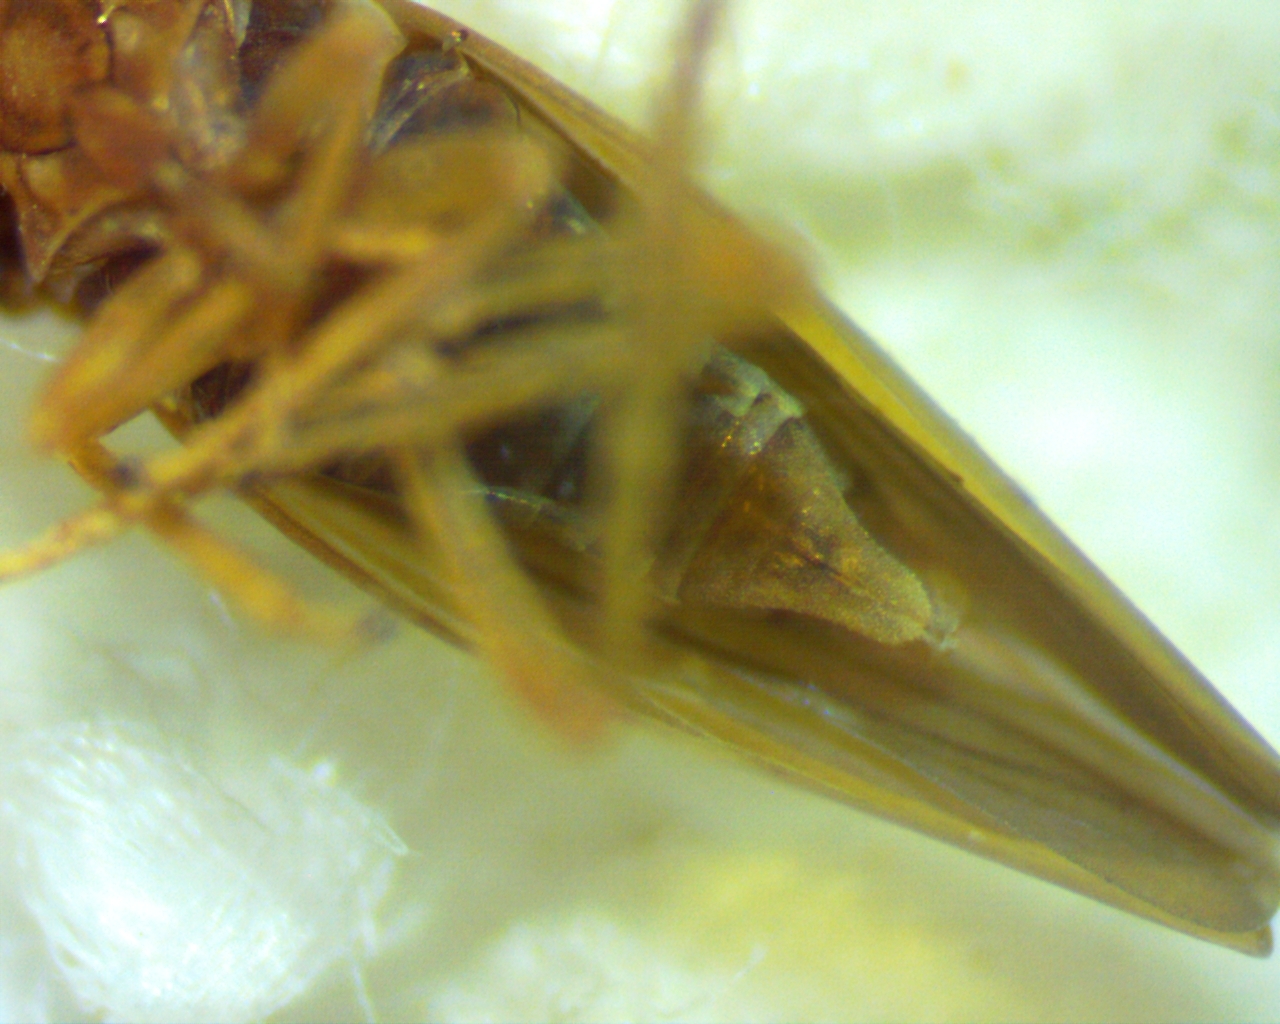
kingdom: Animalia
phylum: Arthropoda
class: Insecta
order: Hemiptera
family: Cicadellidae
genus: Agallia
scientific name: Agallia constricta
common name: The constricted leafhopper
